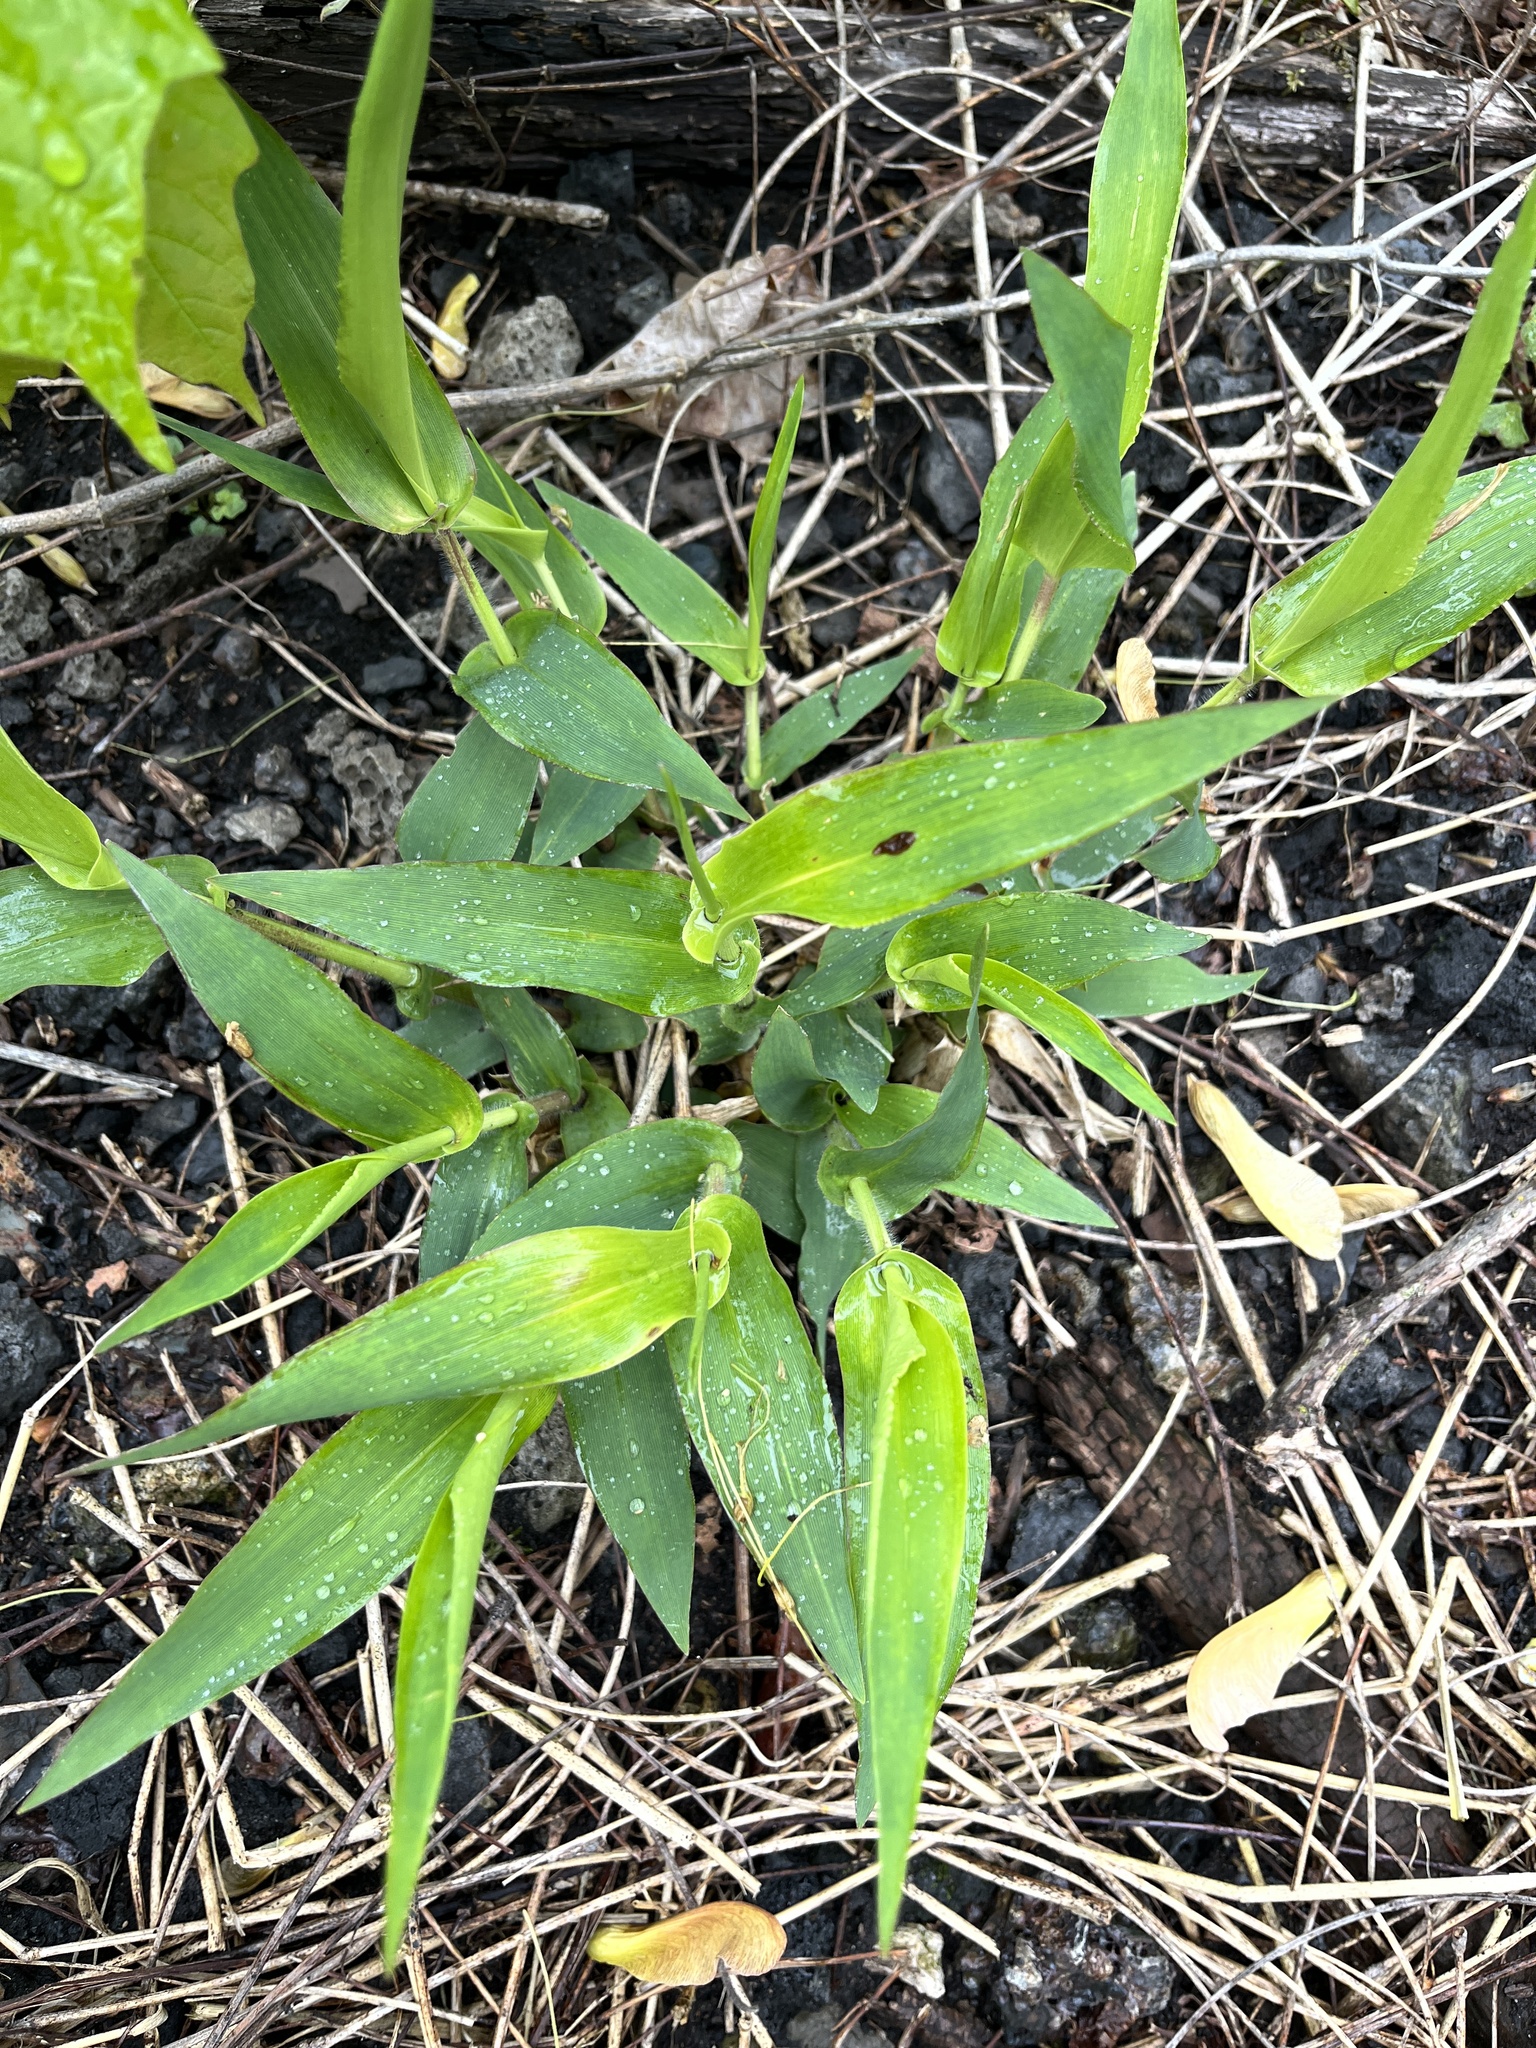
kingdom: Plantae
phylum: Tracheophyta
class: Liliopsida
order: Poales
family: Poaceae
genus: Dichanthelium
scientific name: Dichanthelium clandestinum
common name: Deer-tongue grass
